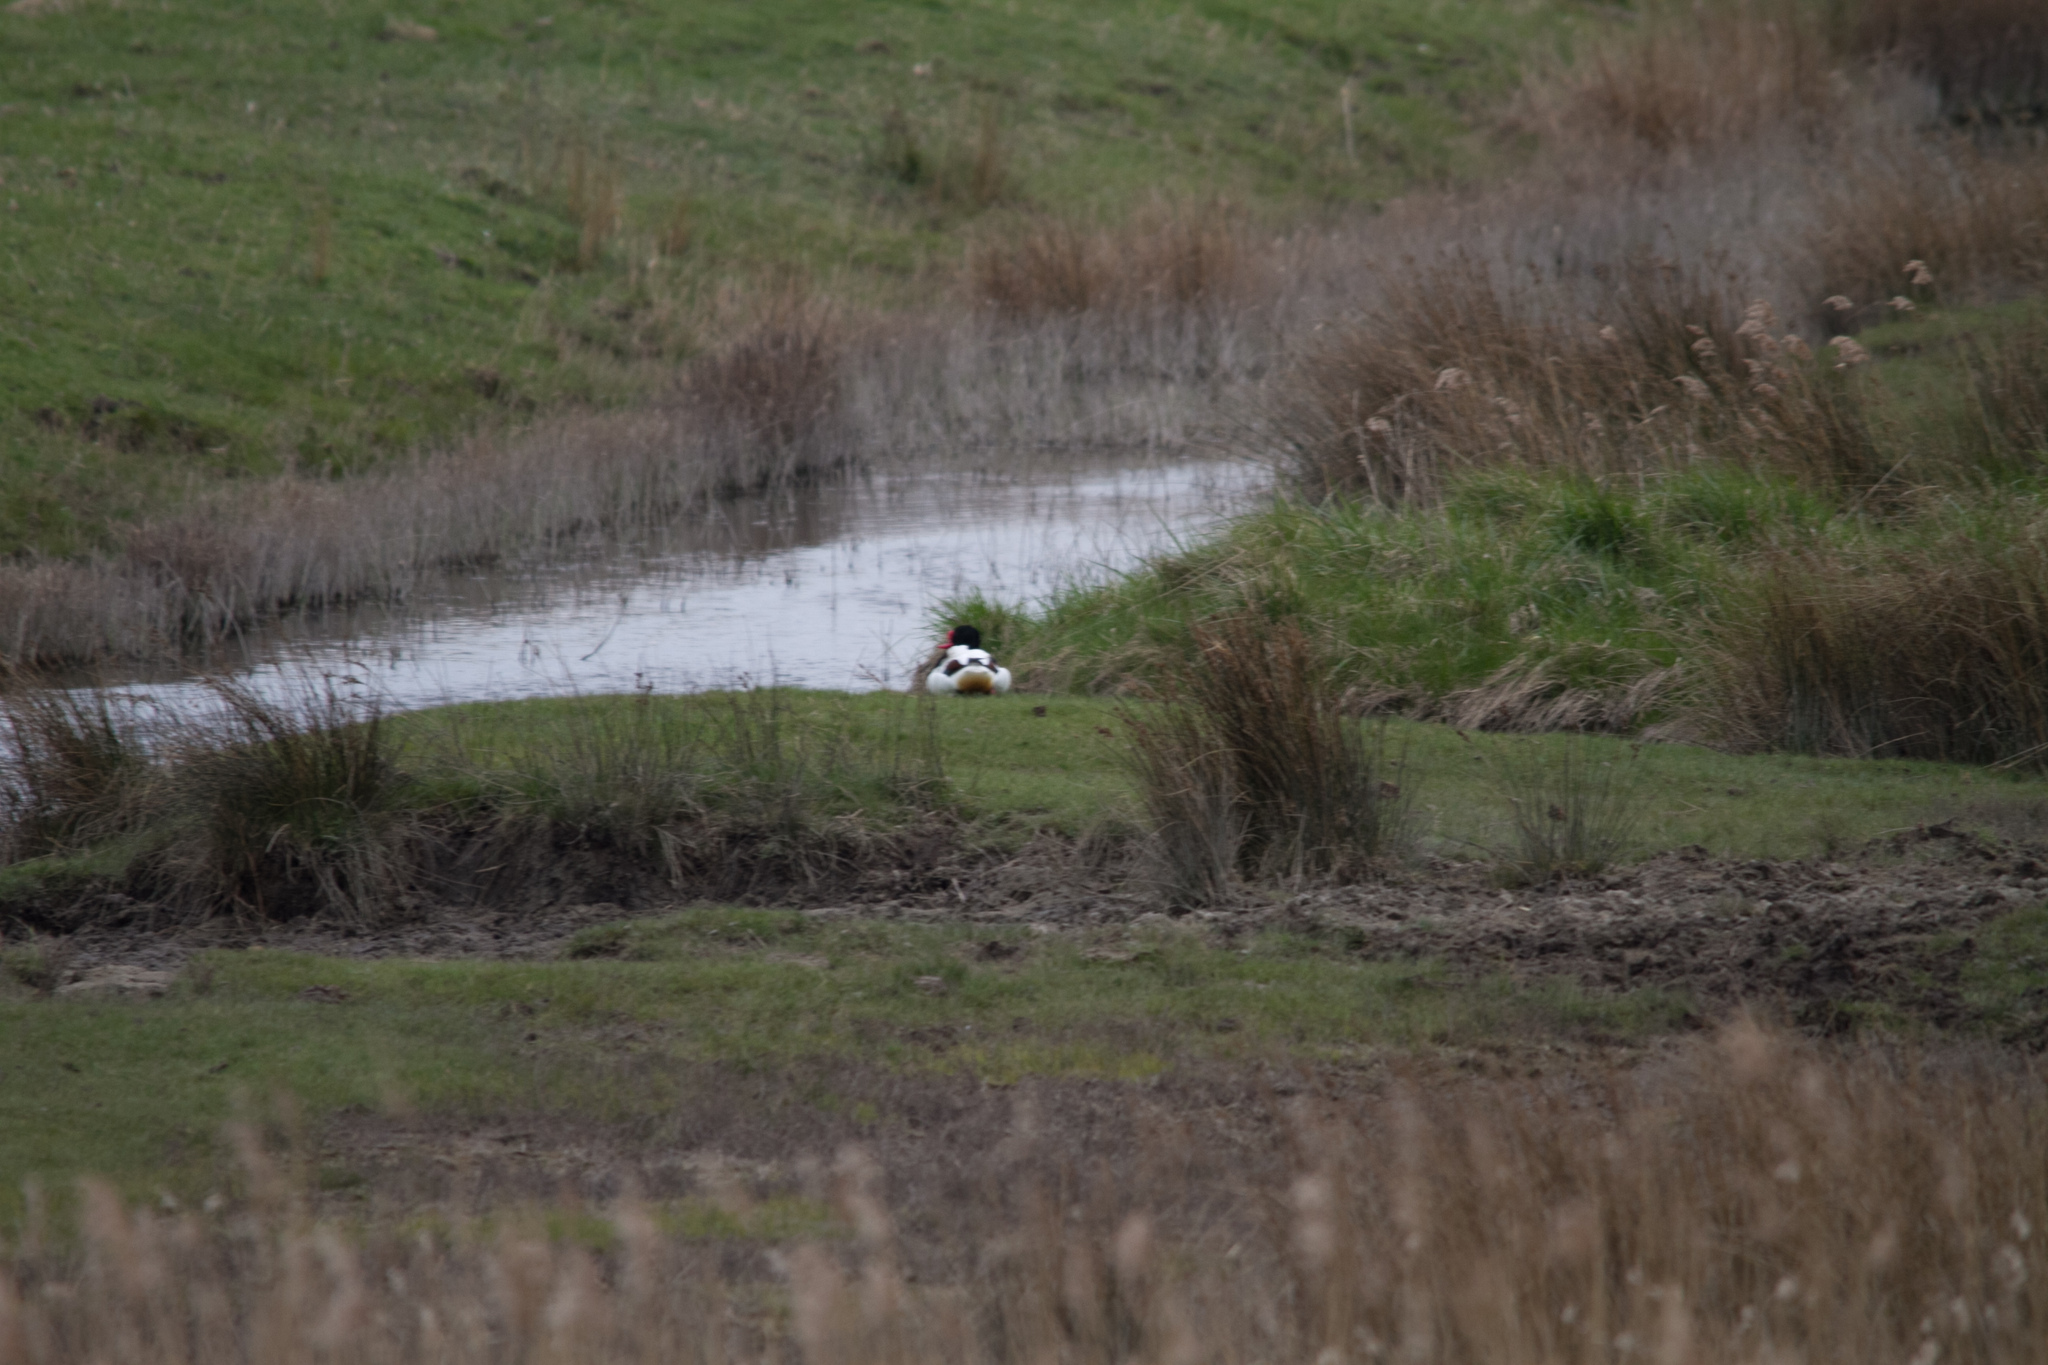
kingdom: Animalia
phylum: Chordata
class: Aves
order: Anseriformes
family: Anatidae
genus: Tadorna
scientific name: Tadorna tadorna
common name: Common shelduck
